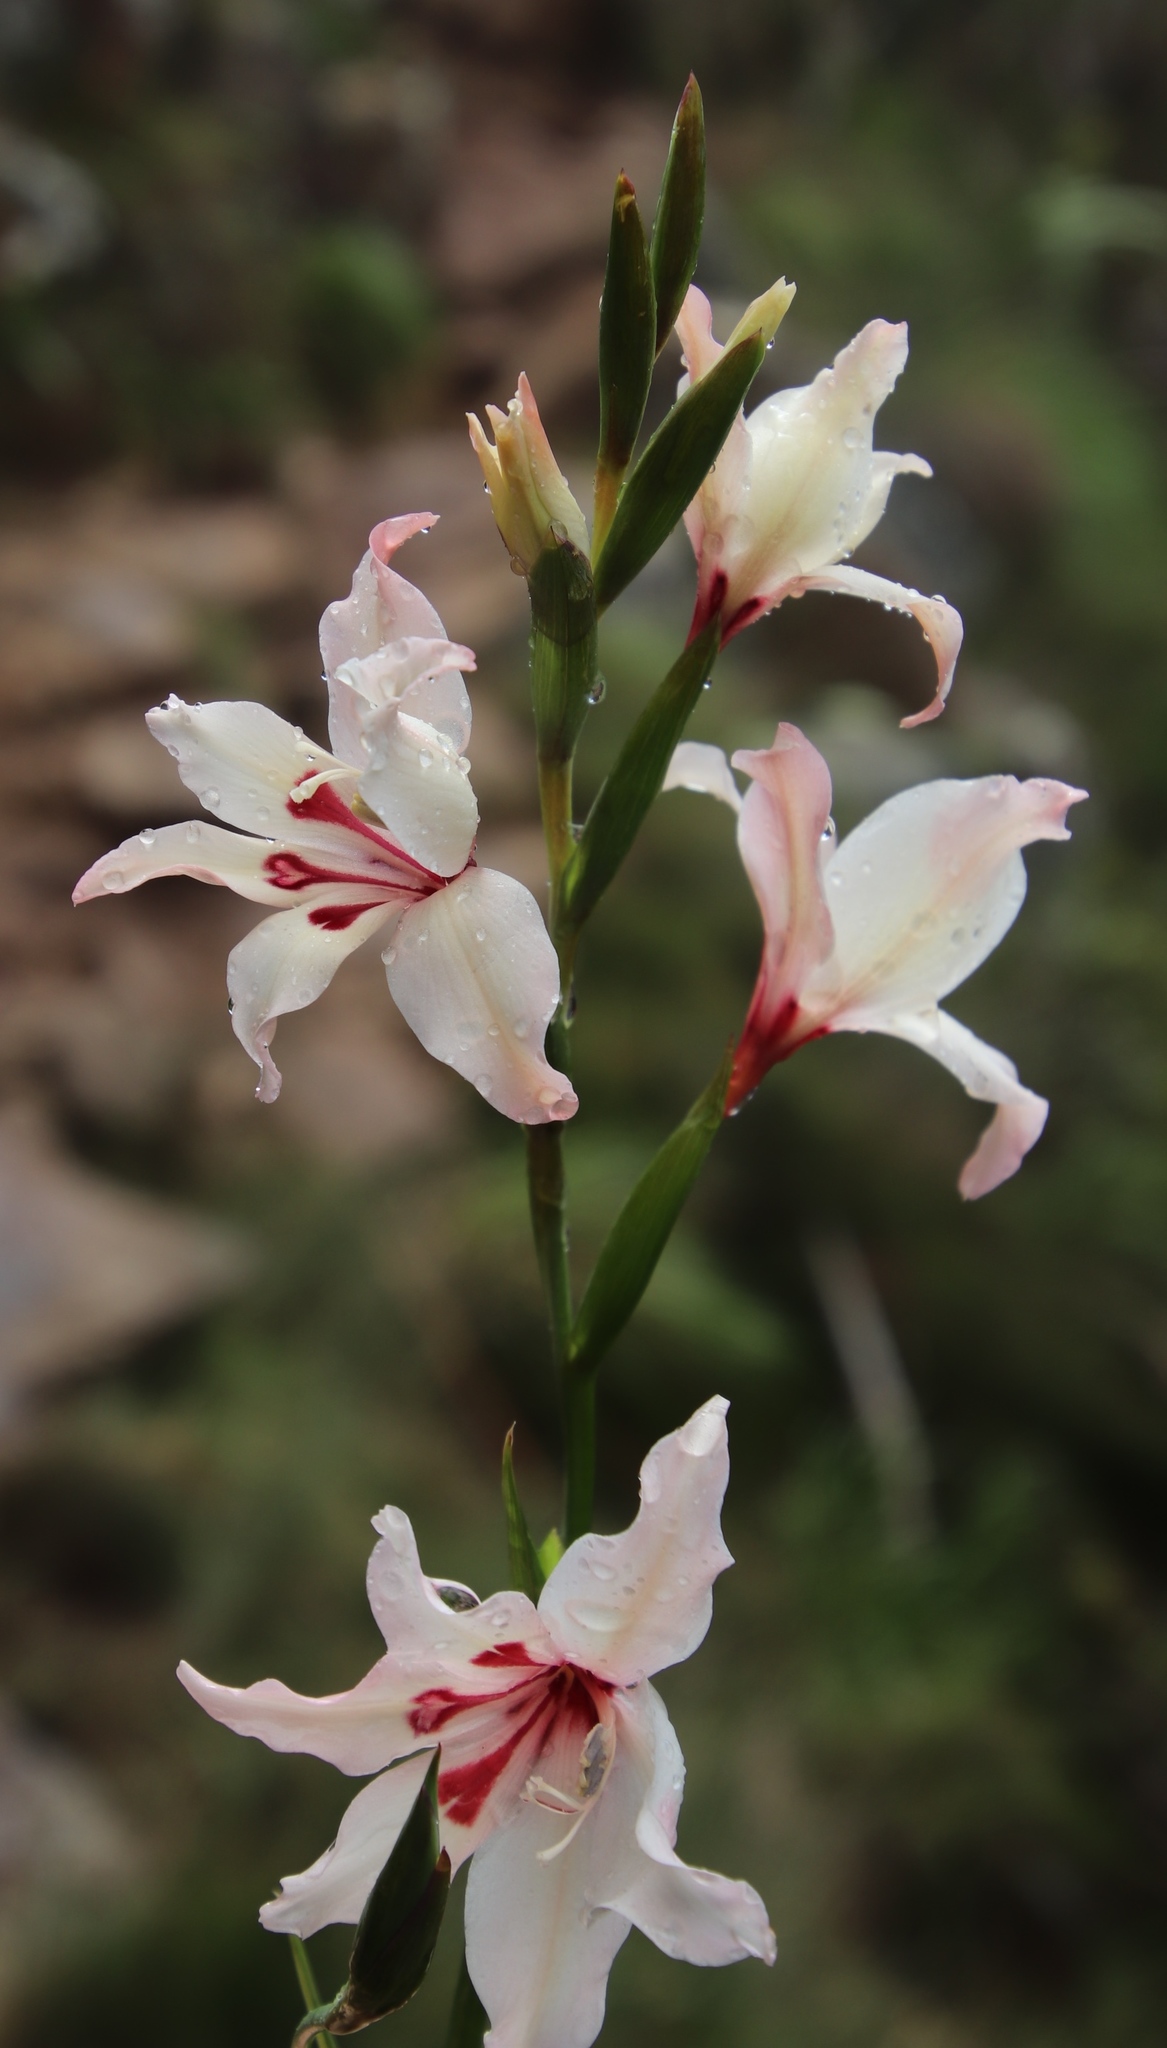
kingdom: Plantae
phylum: Tracheophyta
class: Liliopsida
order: Asparagales
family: Iridaceae
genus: Gladiolus
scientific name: Gladiolus carneus
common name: Painted-lady
